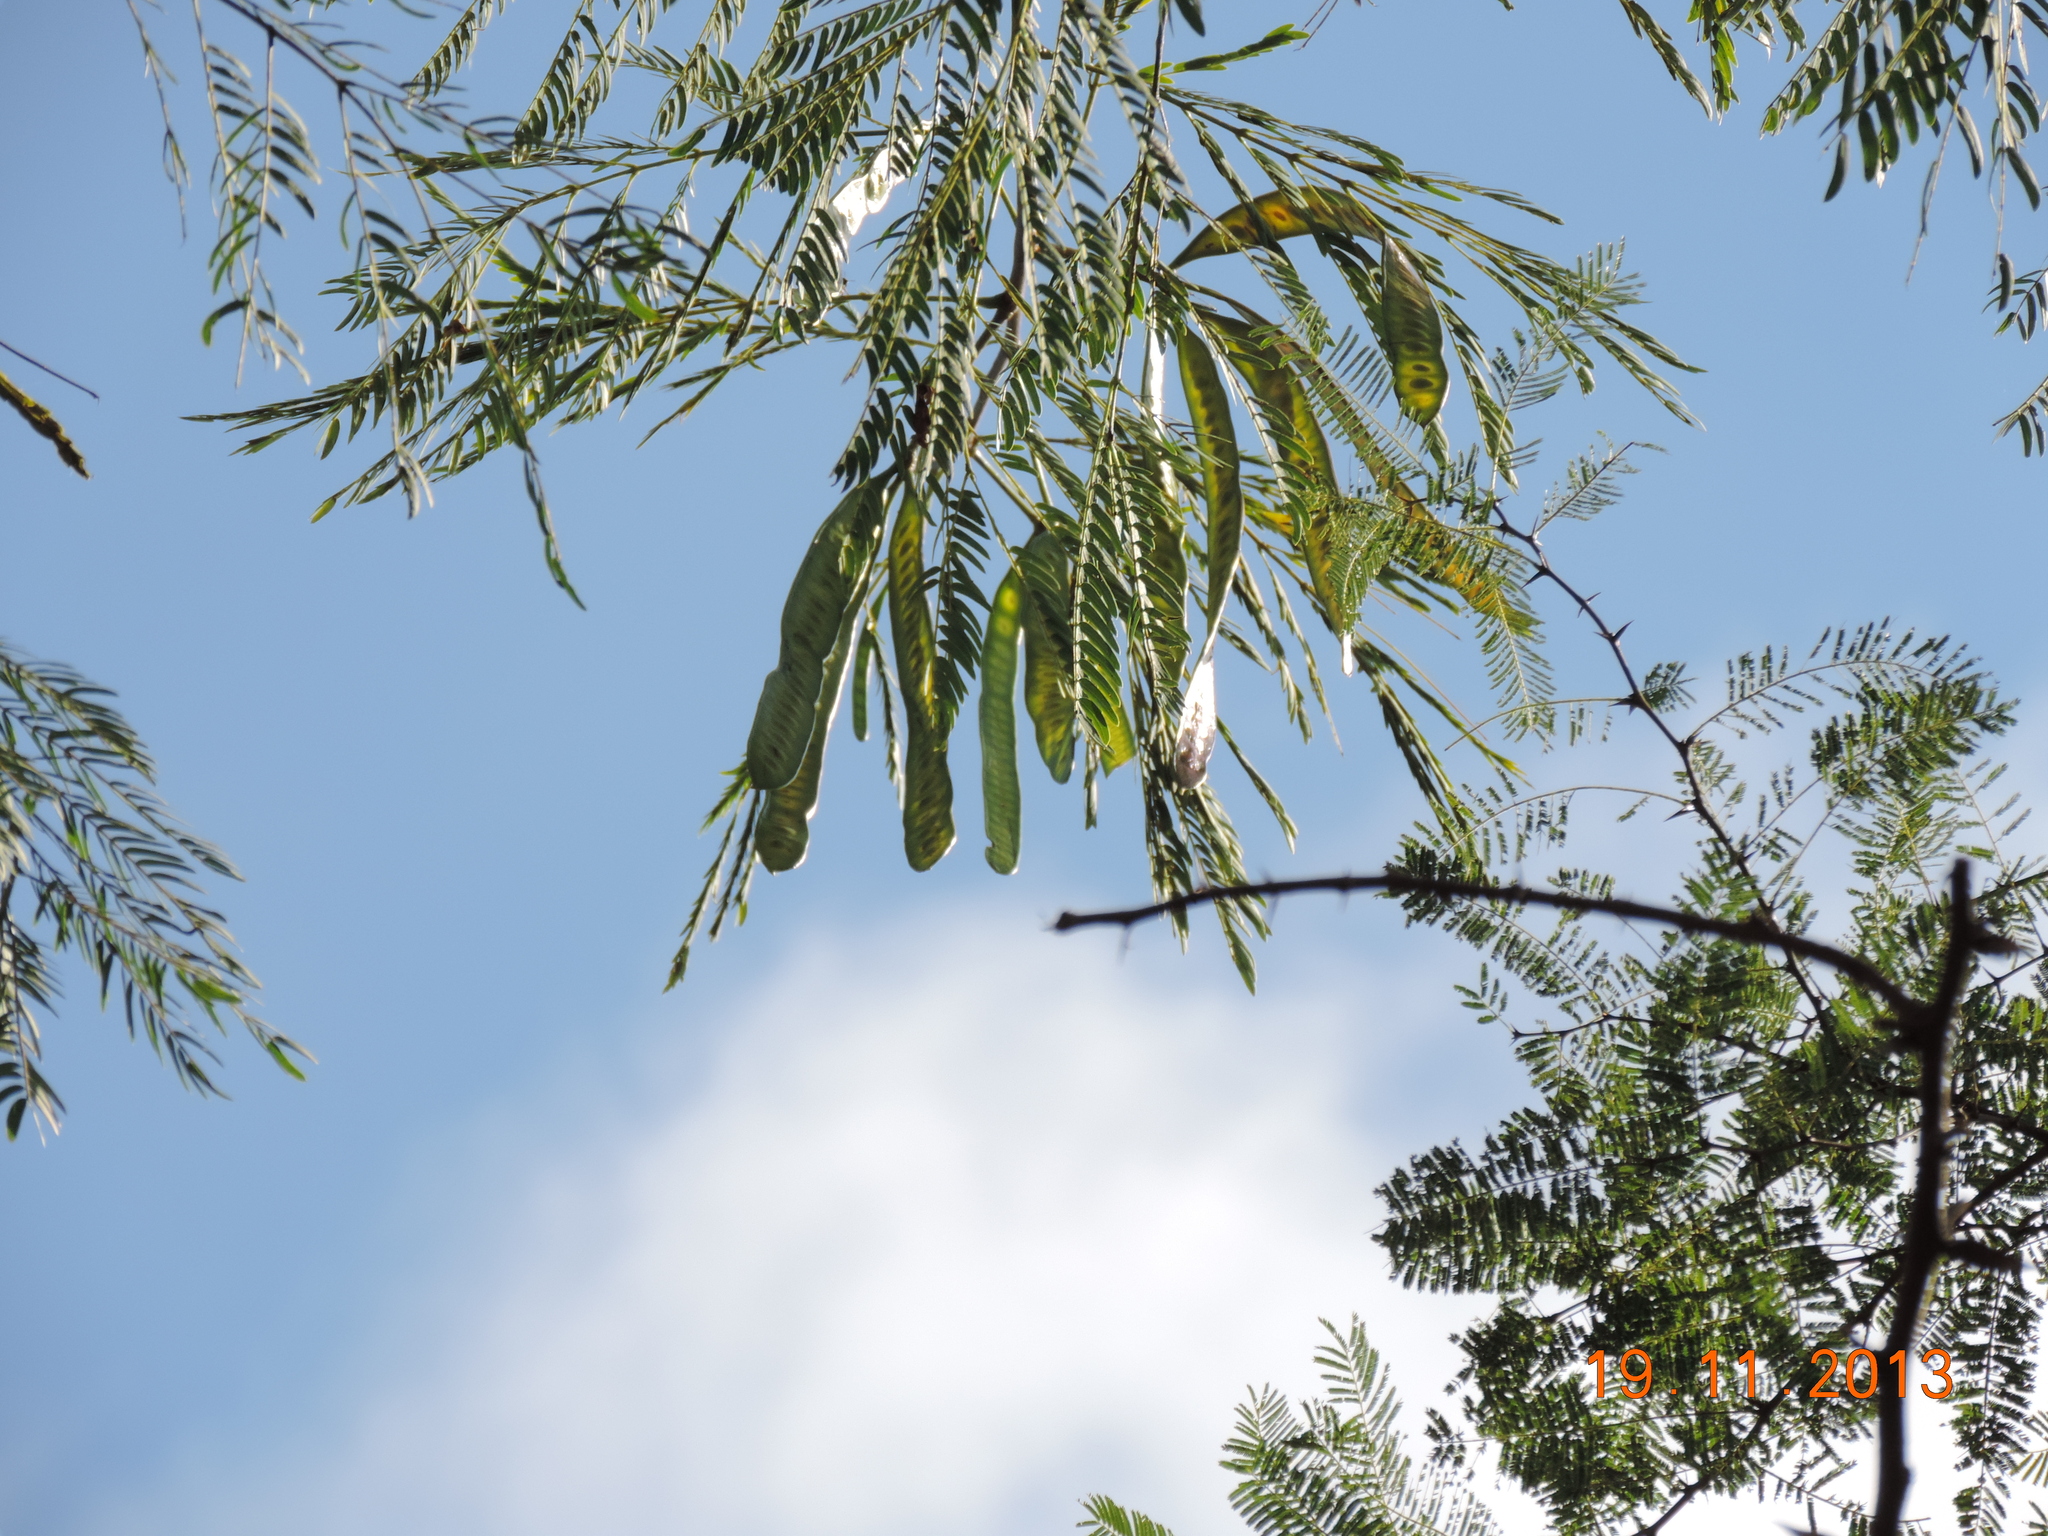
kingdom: Plantae
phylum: Tracheophyta
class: Magnoliopsida
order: Fabales
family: Fabaceae
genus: Leucaena
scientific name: Leucaena leucocephala
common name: White leadtree
